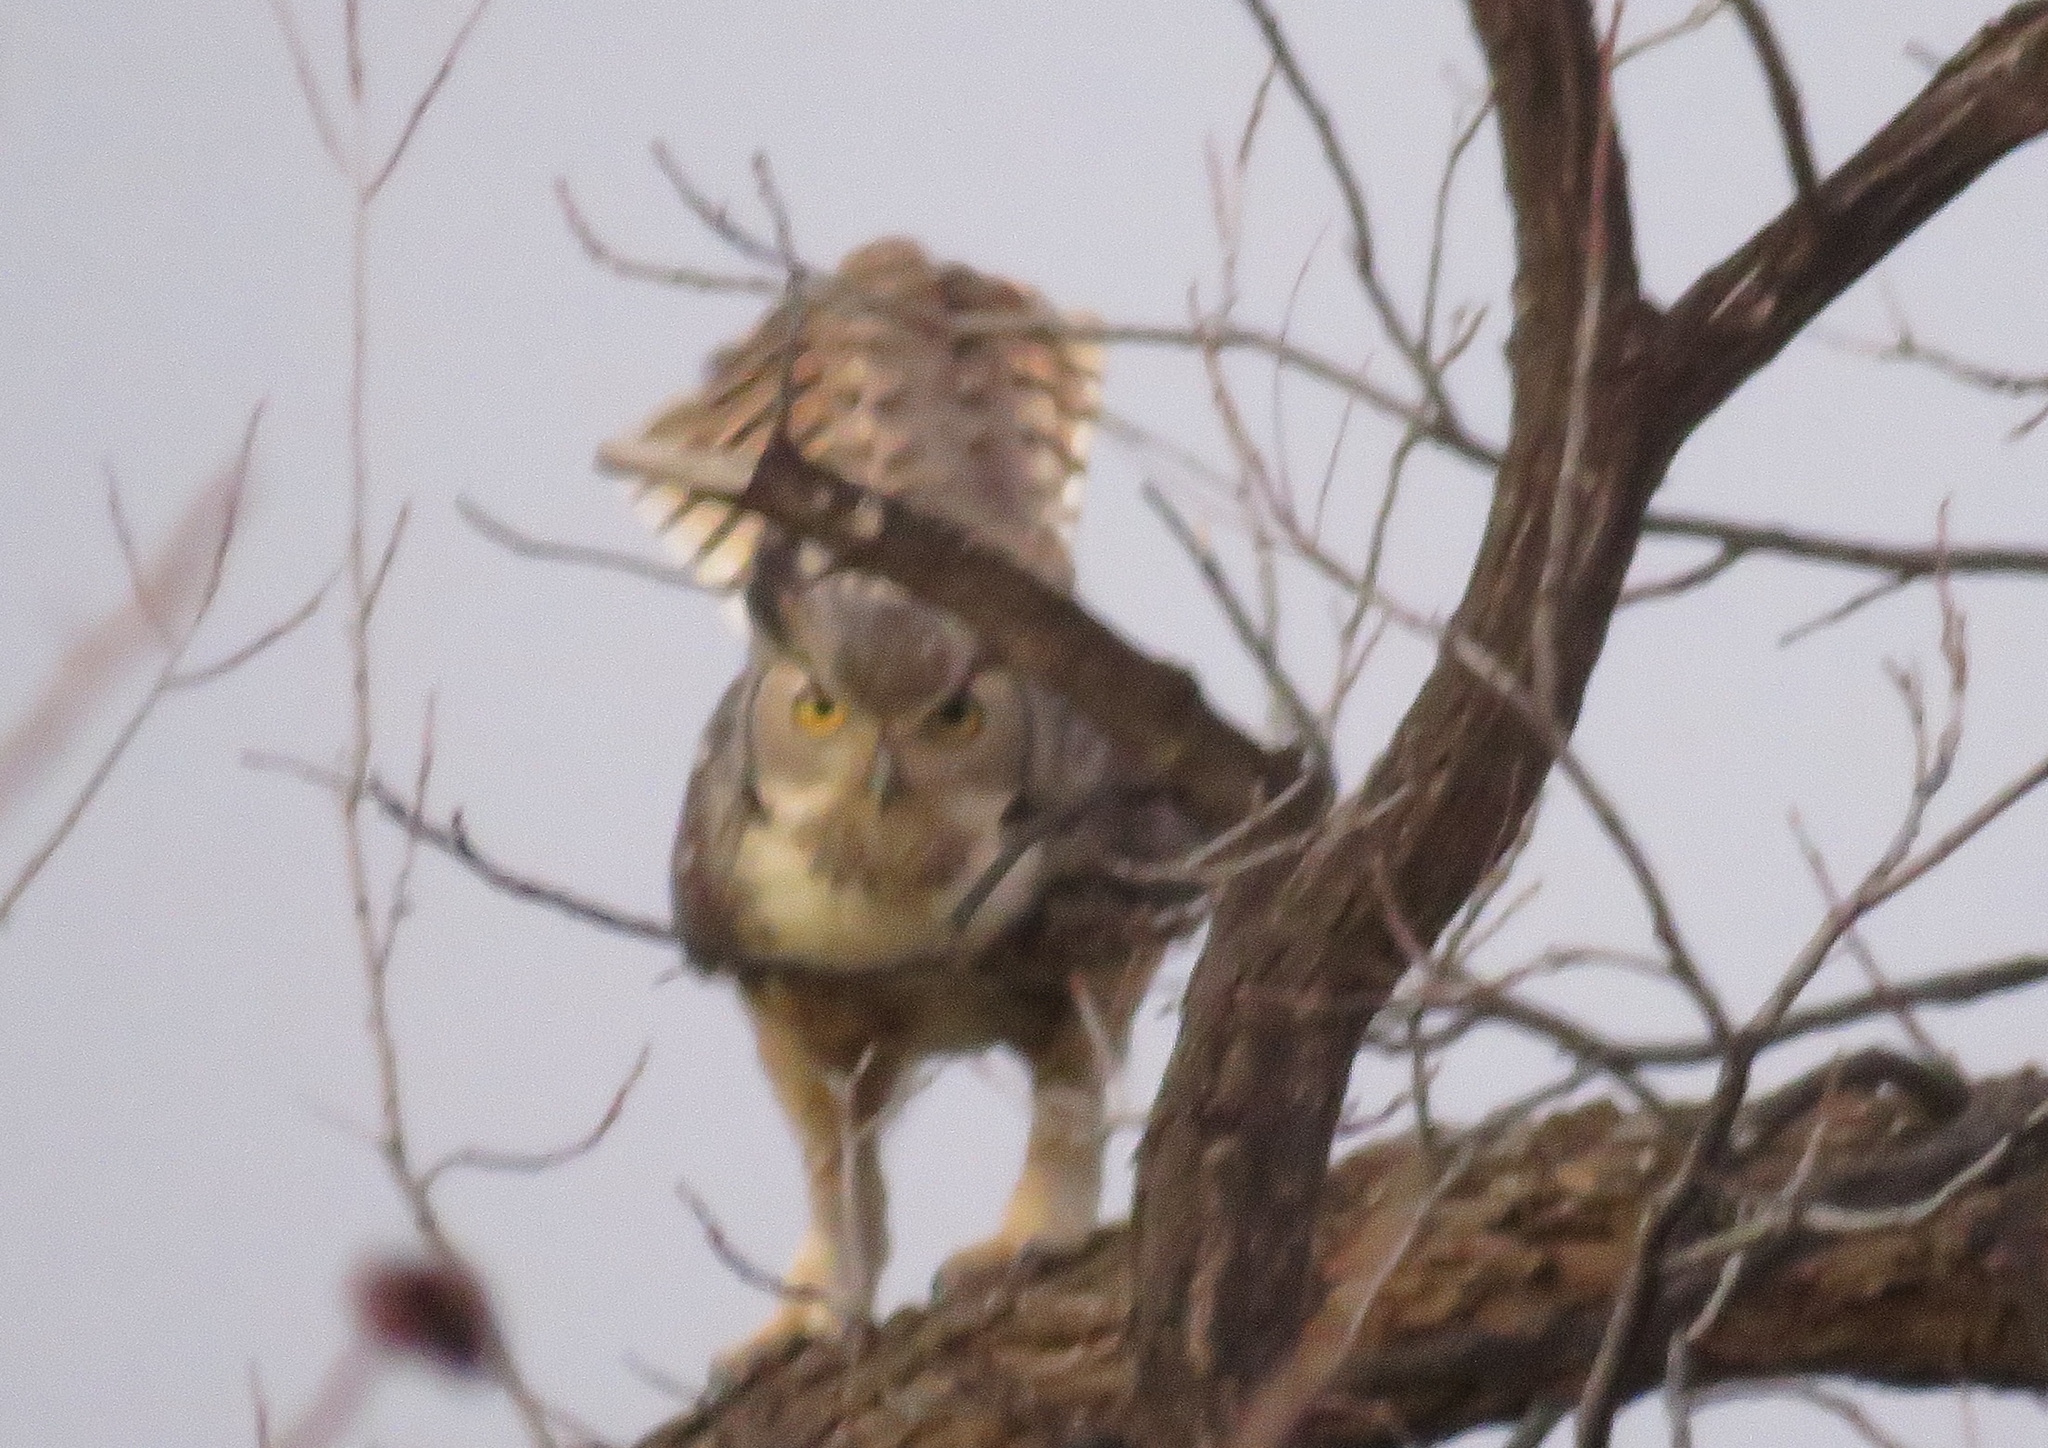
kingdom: Animalia
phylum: Chordata
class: Aves
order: Strigiformes
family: Strigidae
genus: Bubo
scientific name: Bubo virginianus
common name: Great horned owl
